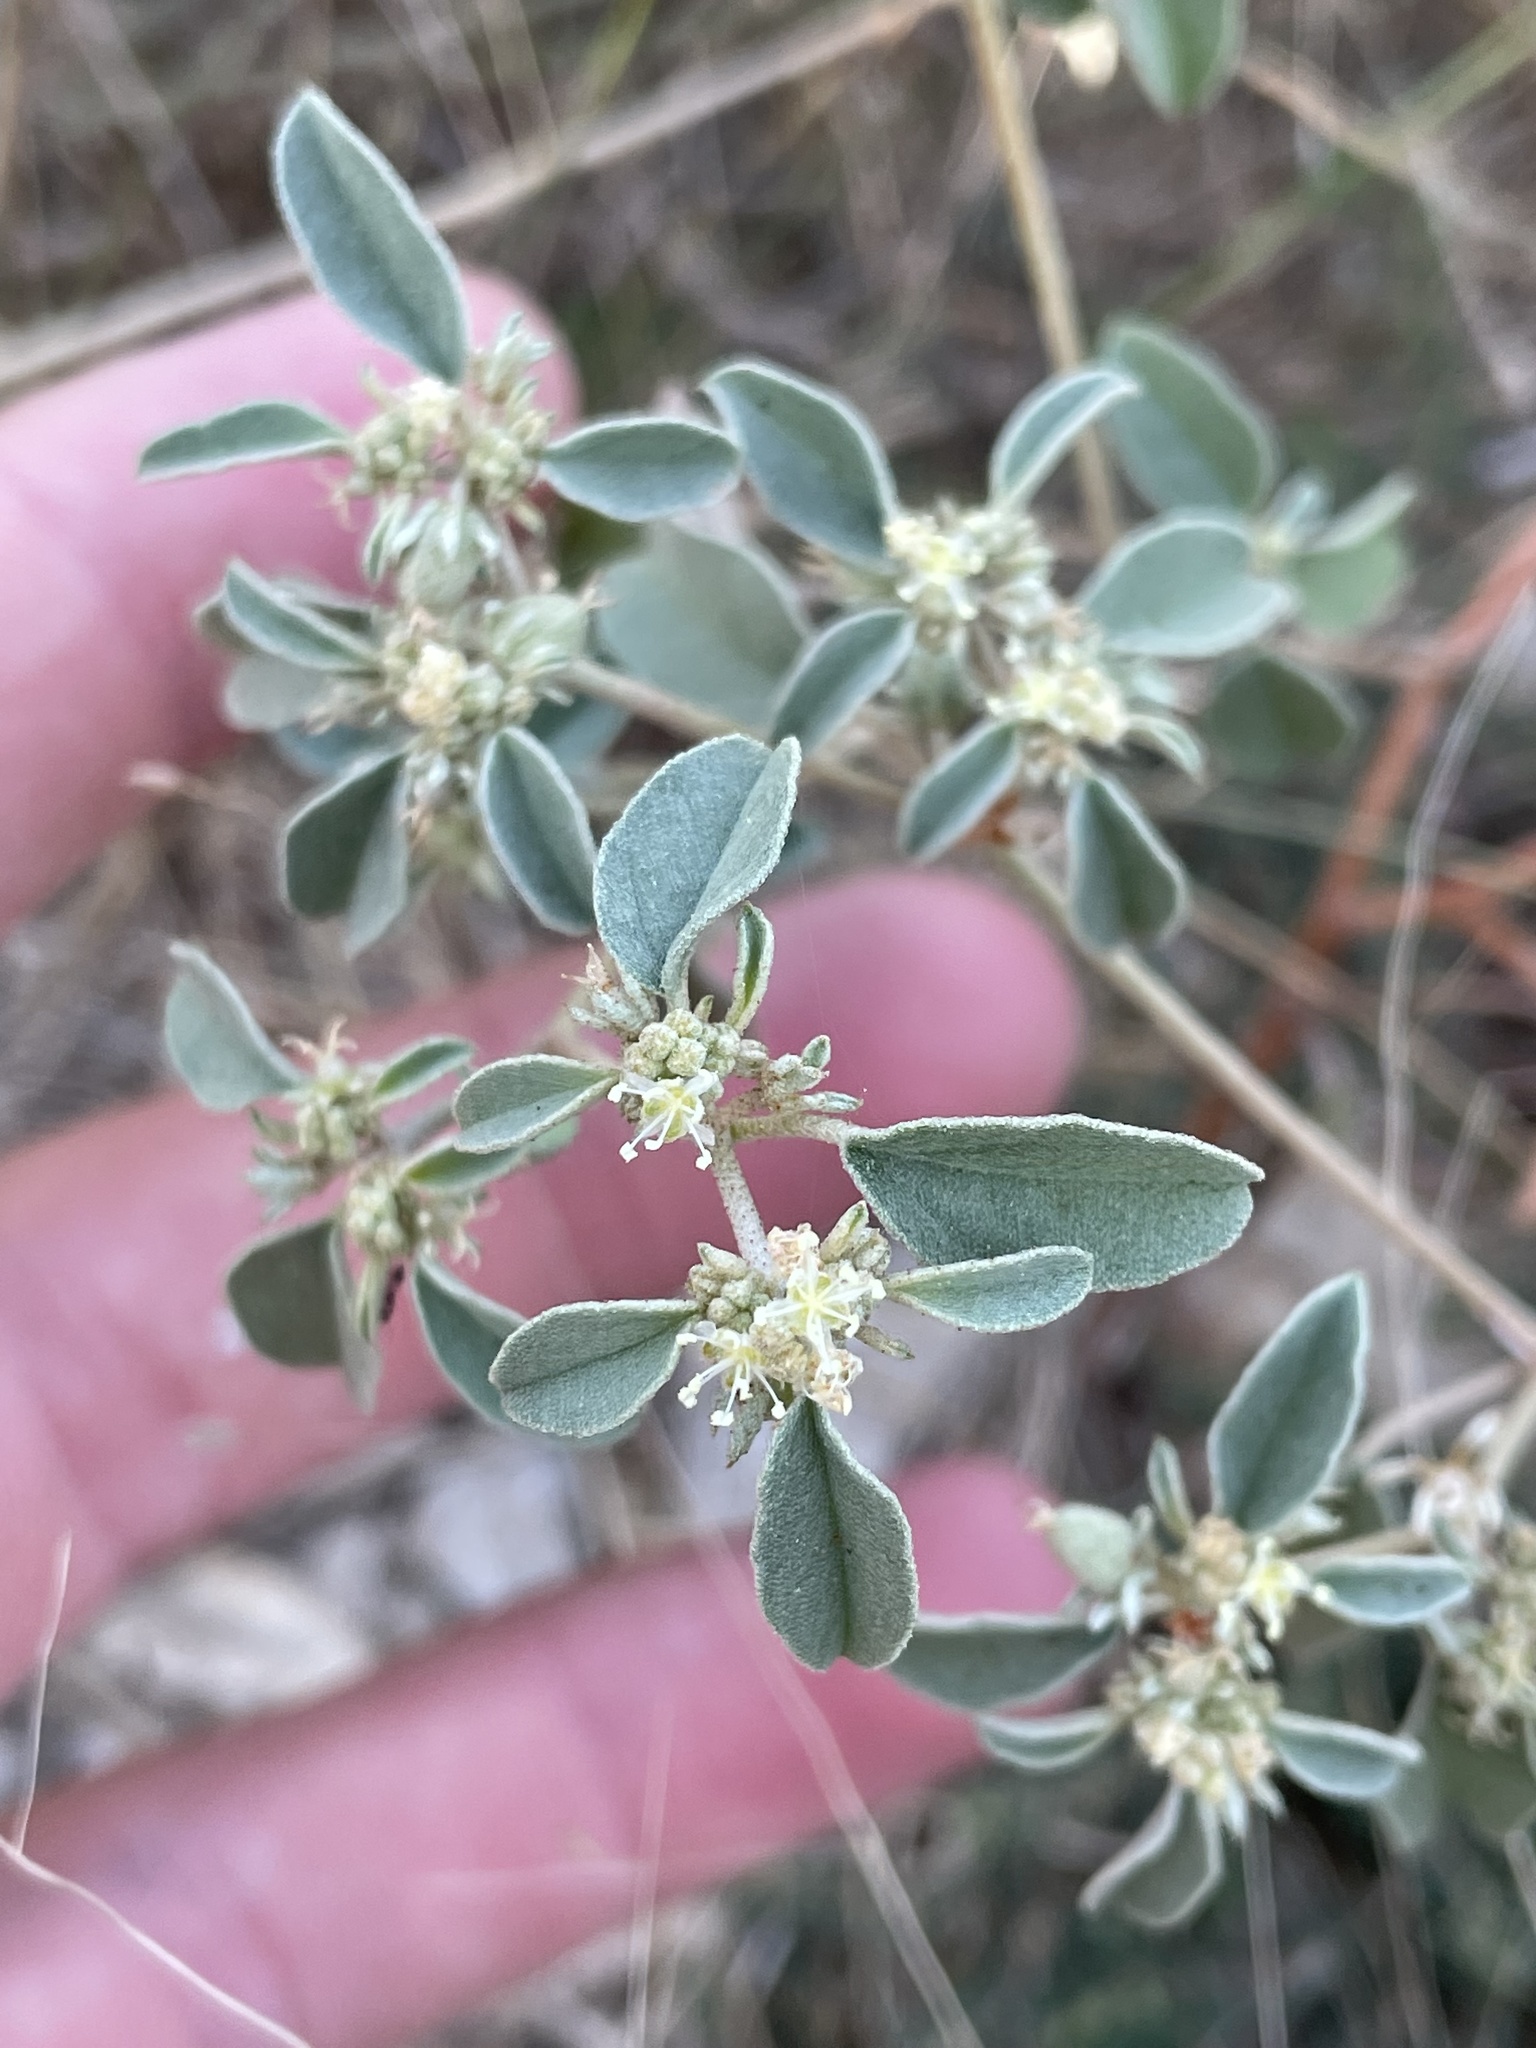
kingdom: Plantae
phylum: Tracheophyta
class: Magnoliopsida
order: Malpighiales
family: Euphorbiaceae
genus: Croton
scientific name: Croton monanthogynus
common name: One-seed croton
